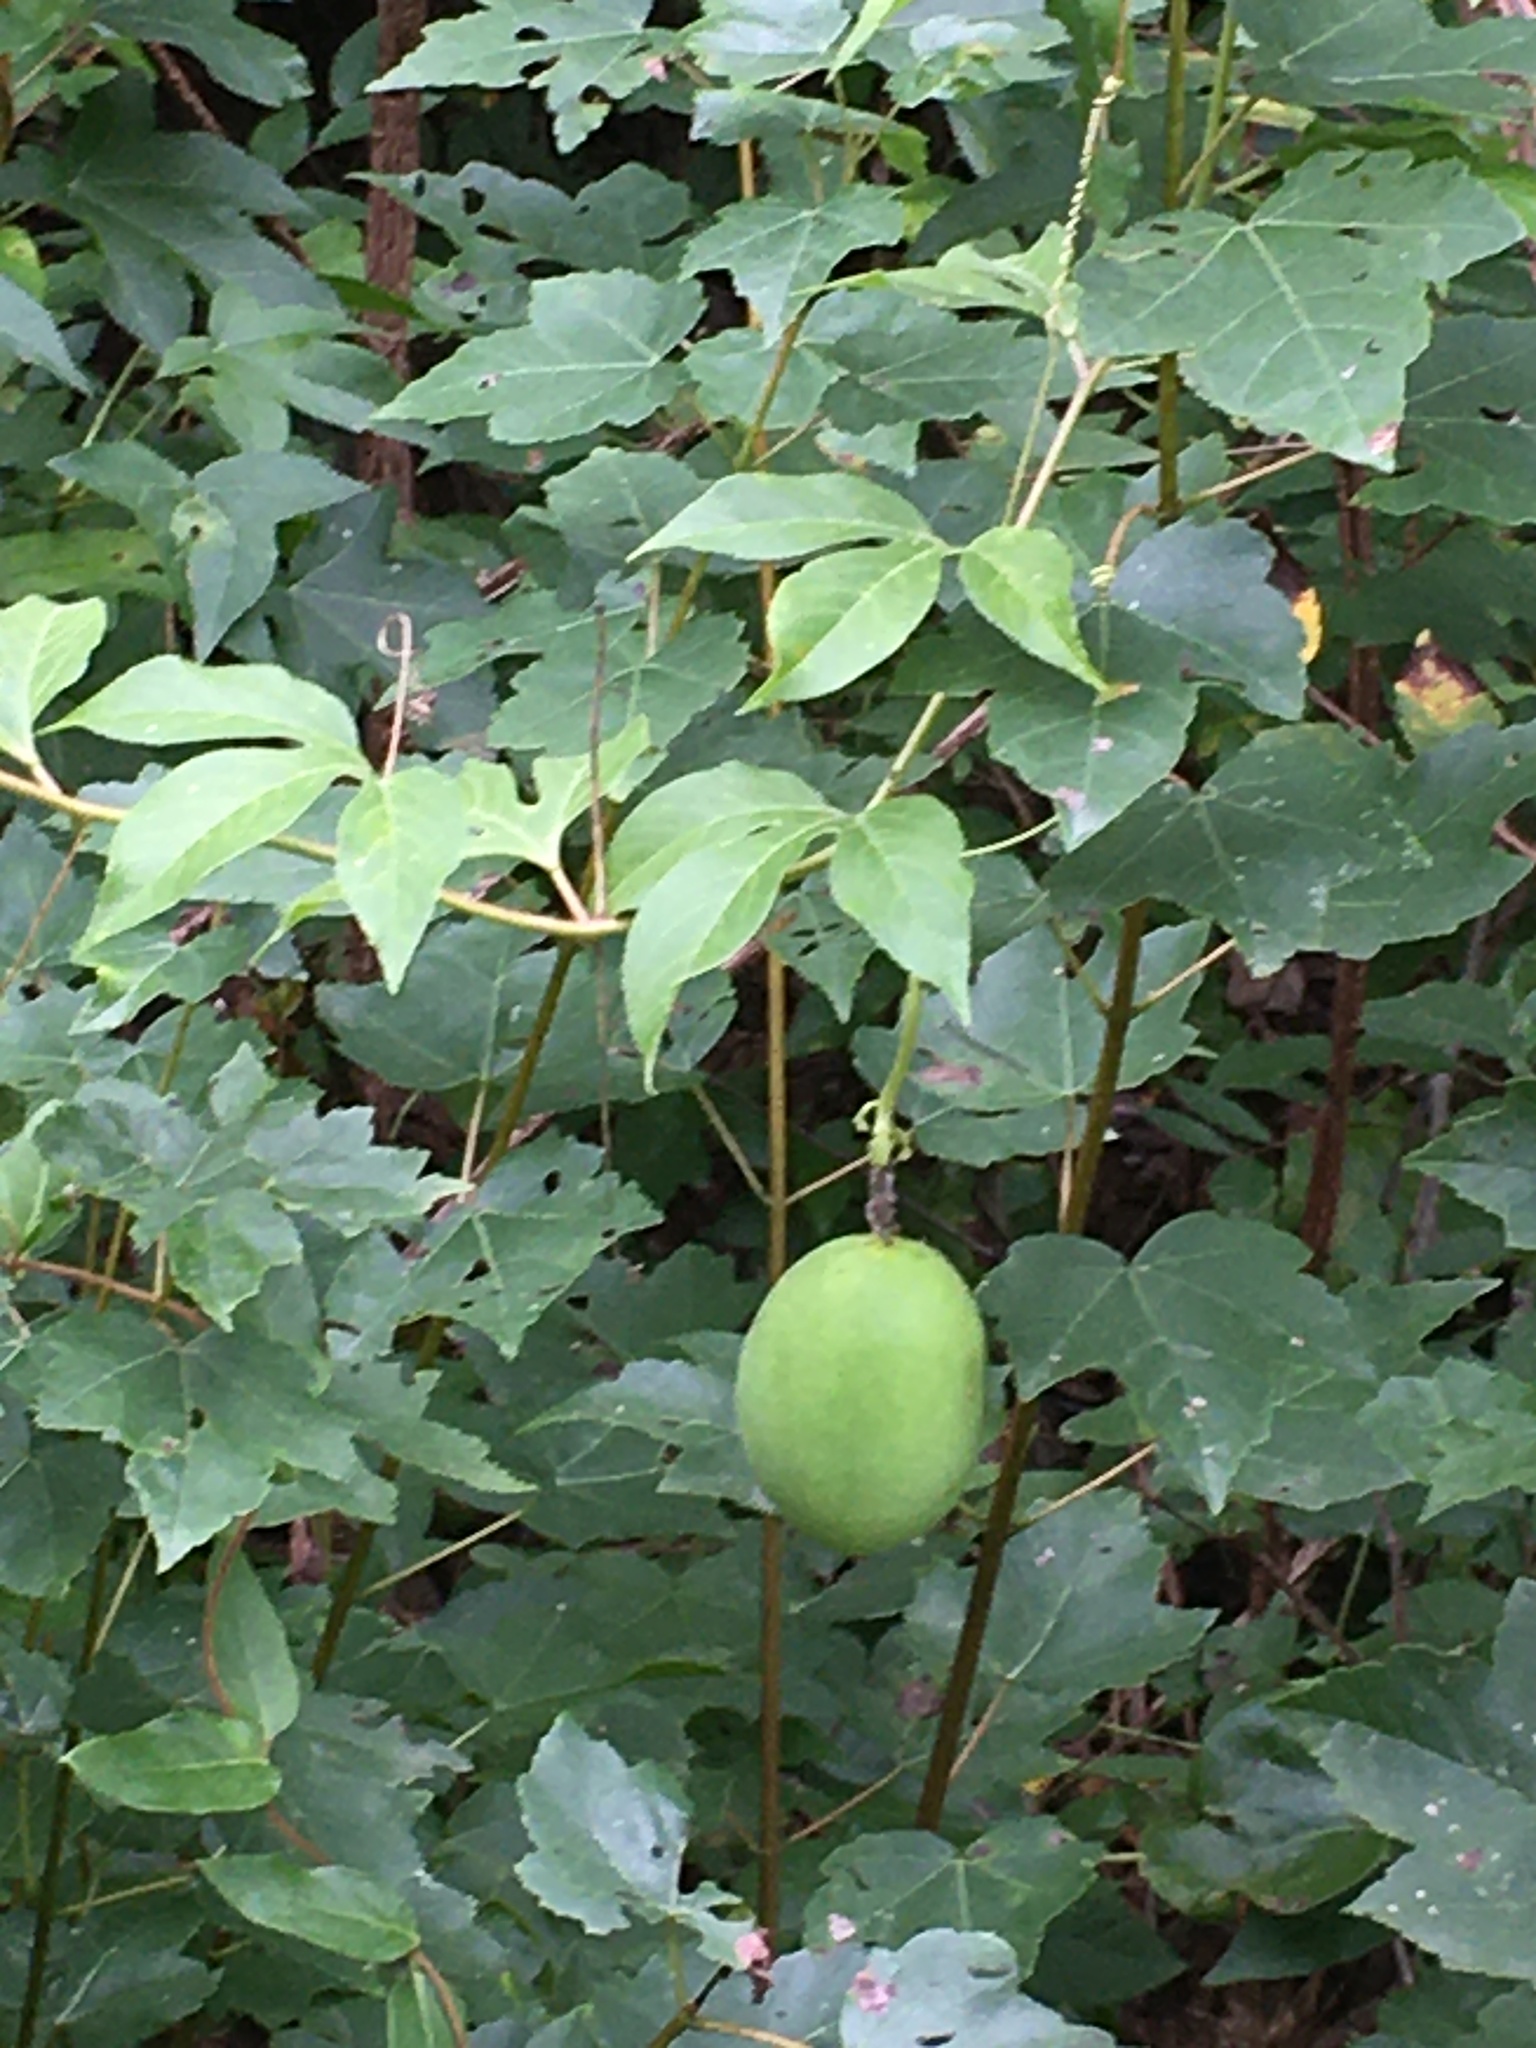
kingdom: Plantae
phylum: Tracheophyta
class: Magnoliopsida
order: Malpighiales
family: Passifloraceae
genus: Passiflora
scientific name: Passiflora incarnata
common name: Apricot-vine
